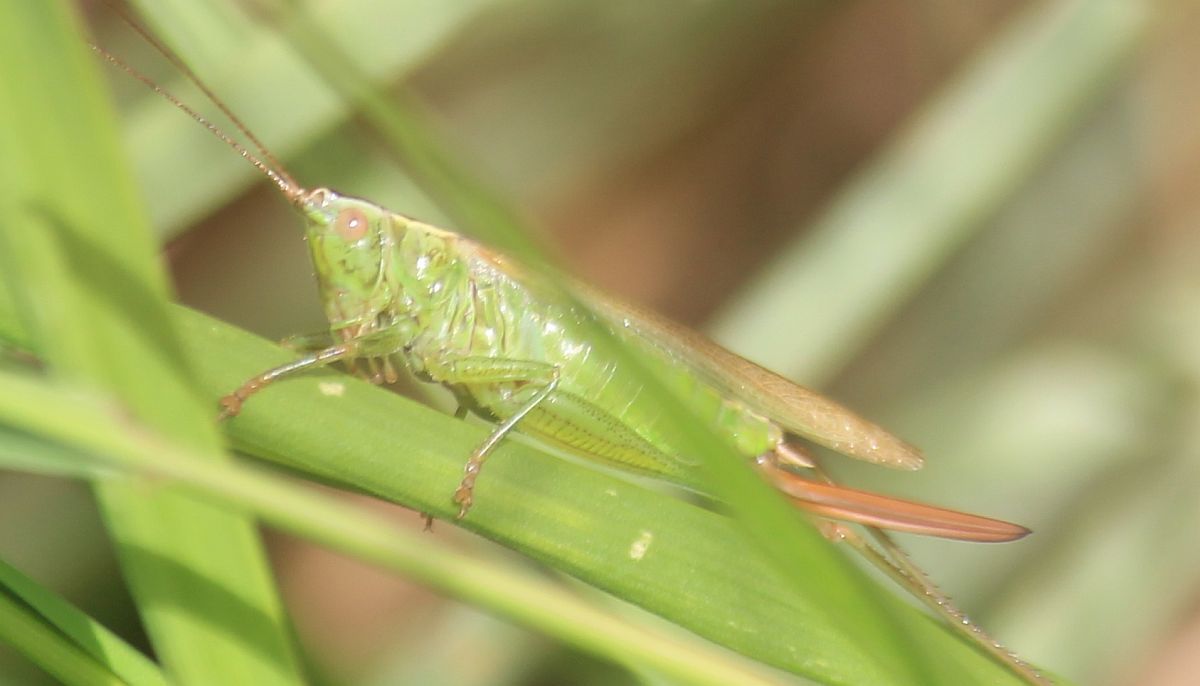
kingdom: Animalia
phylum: Arthropoda
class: Insecta
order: Orthoptera
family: Tettigoniidae
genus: Conocephalus
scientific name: Conocephalus fuscus
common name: Long-winged conehead
